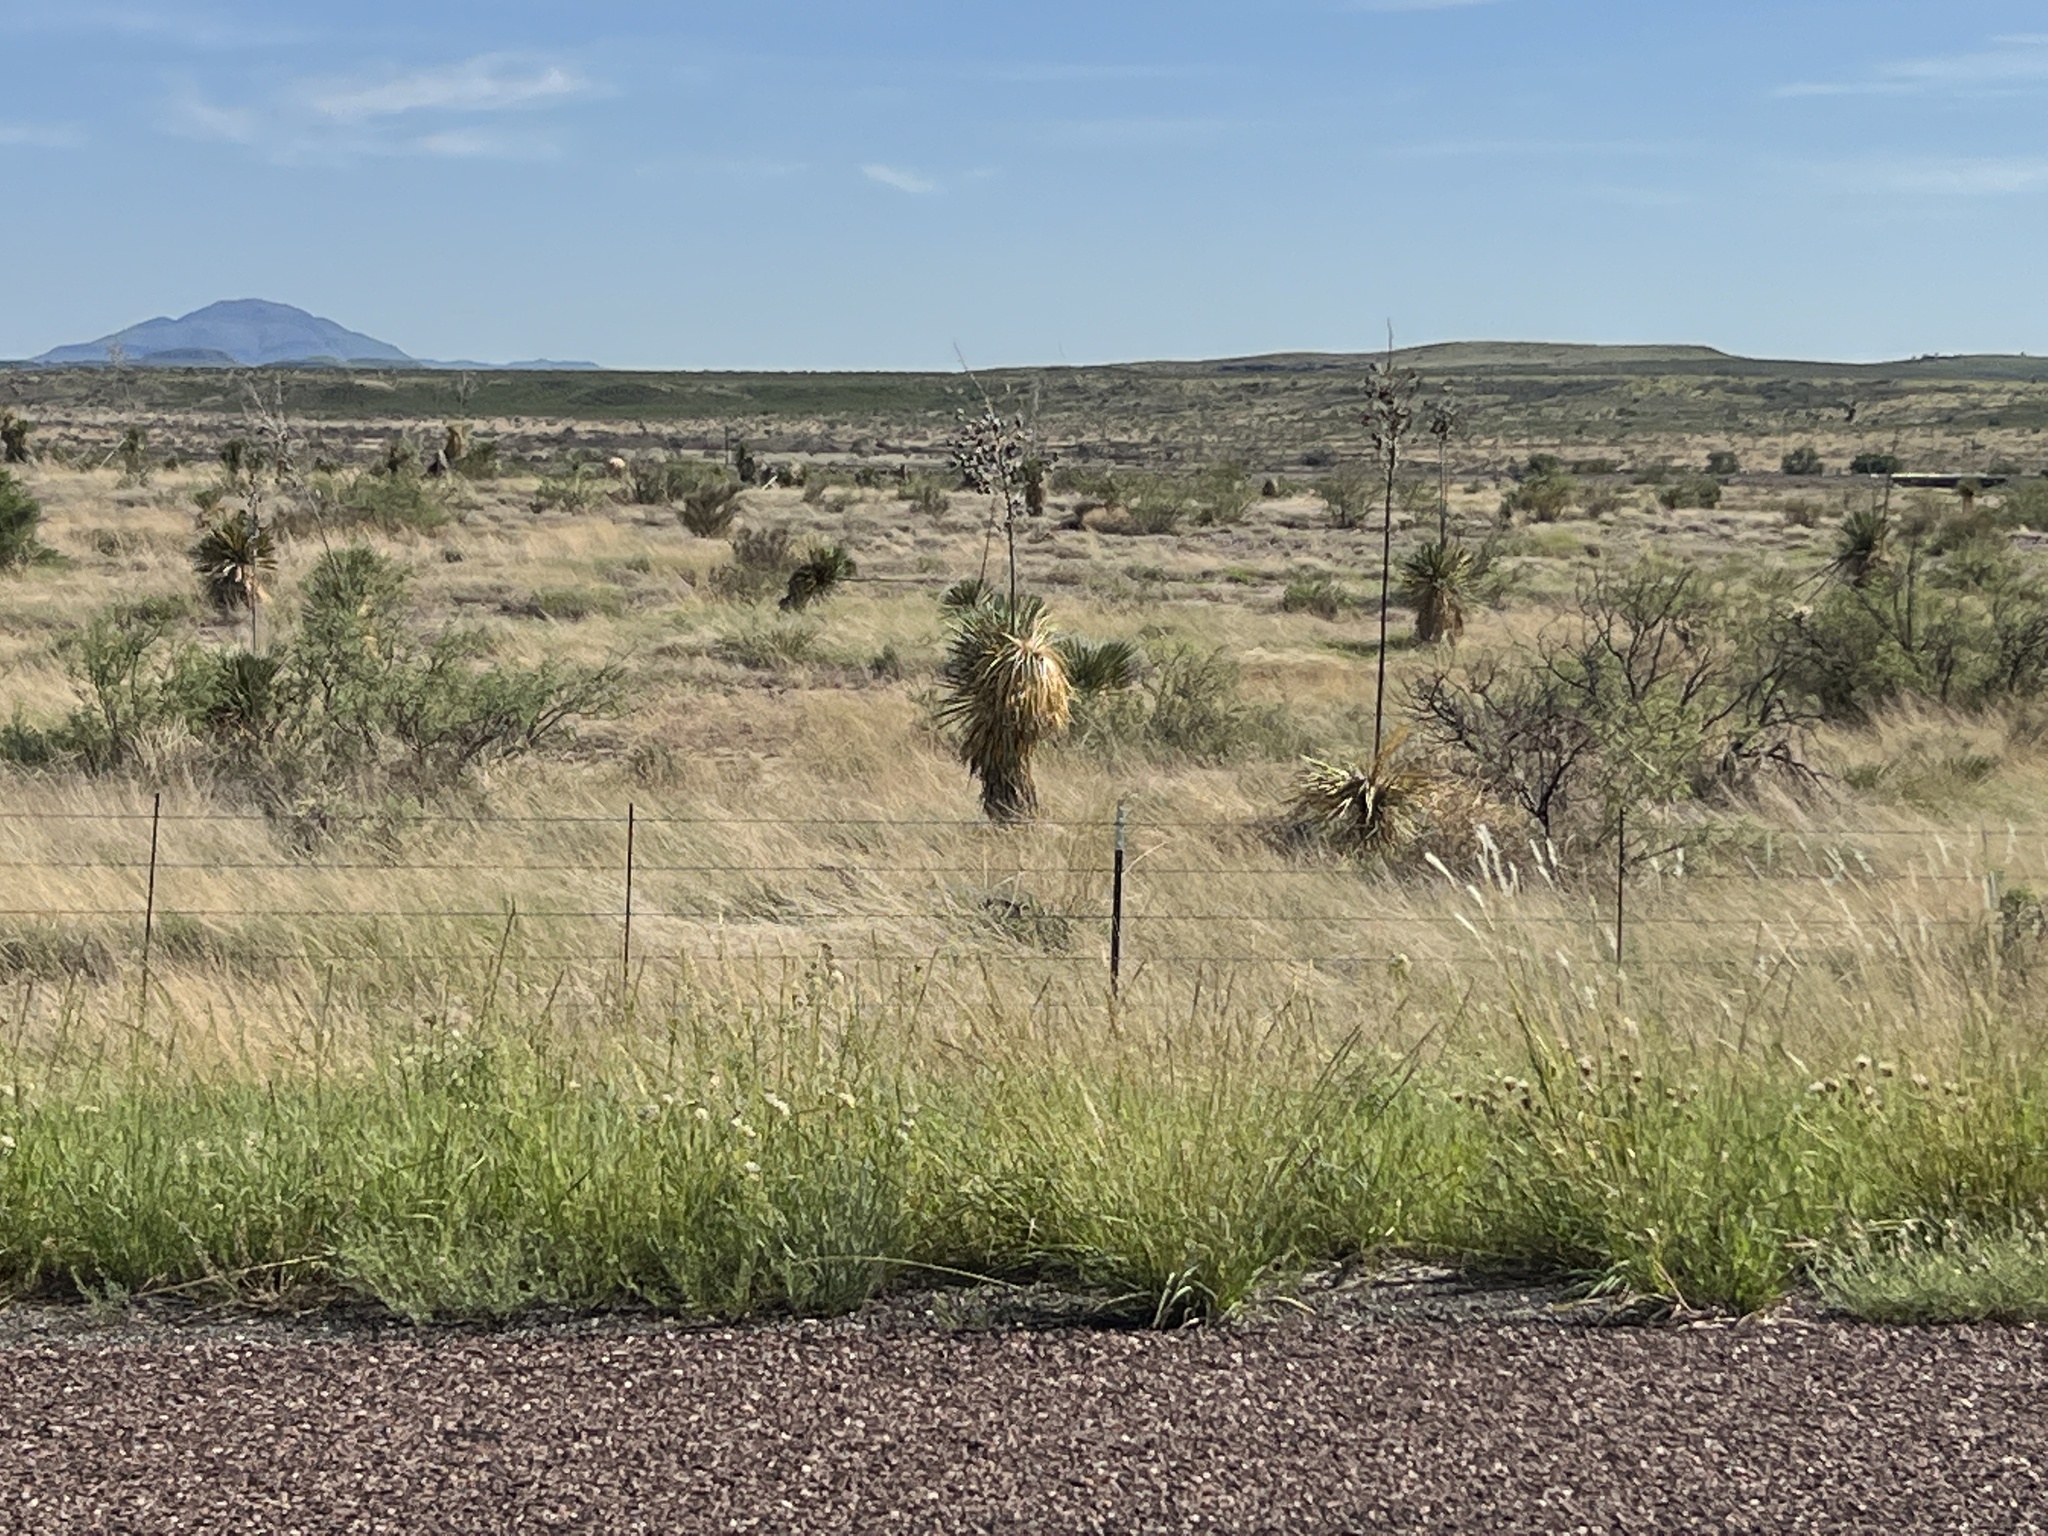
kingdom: Plantae
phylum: Tracheophyta
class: Liliopsida
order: Asparagales
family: Asparagaceae
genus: Yucca
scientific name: Yucca elata
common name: Palmella
